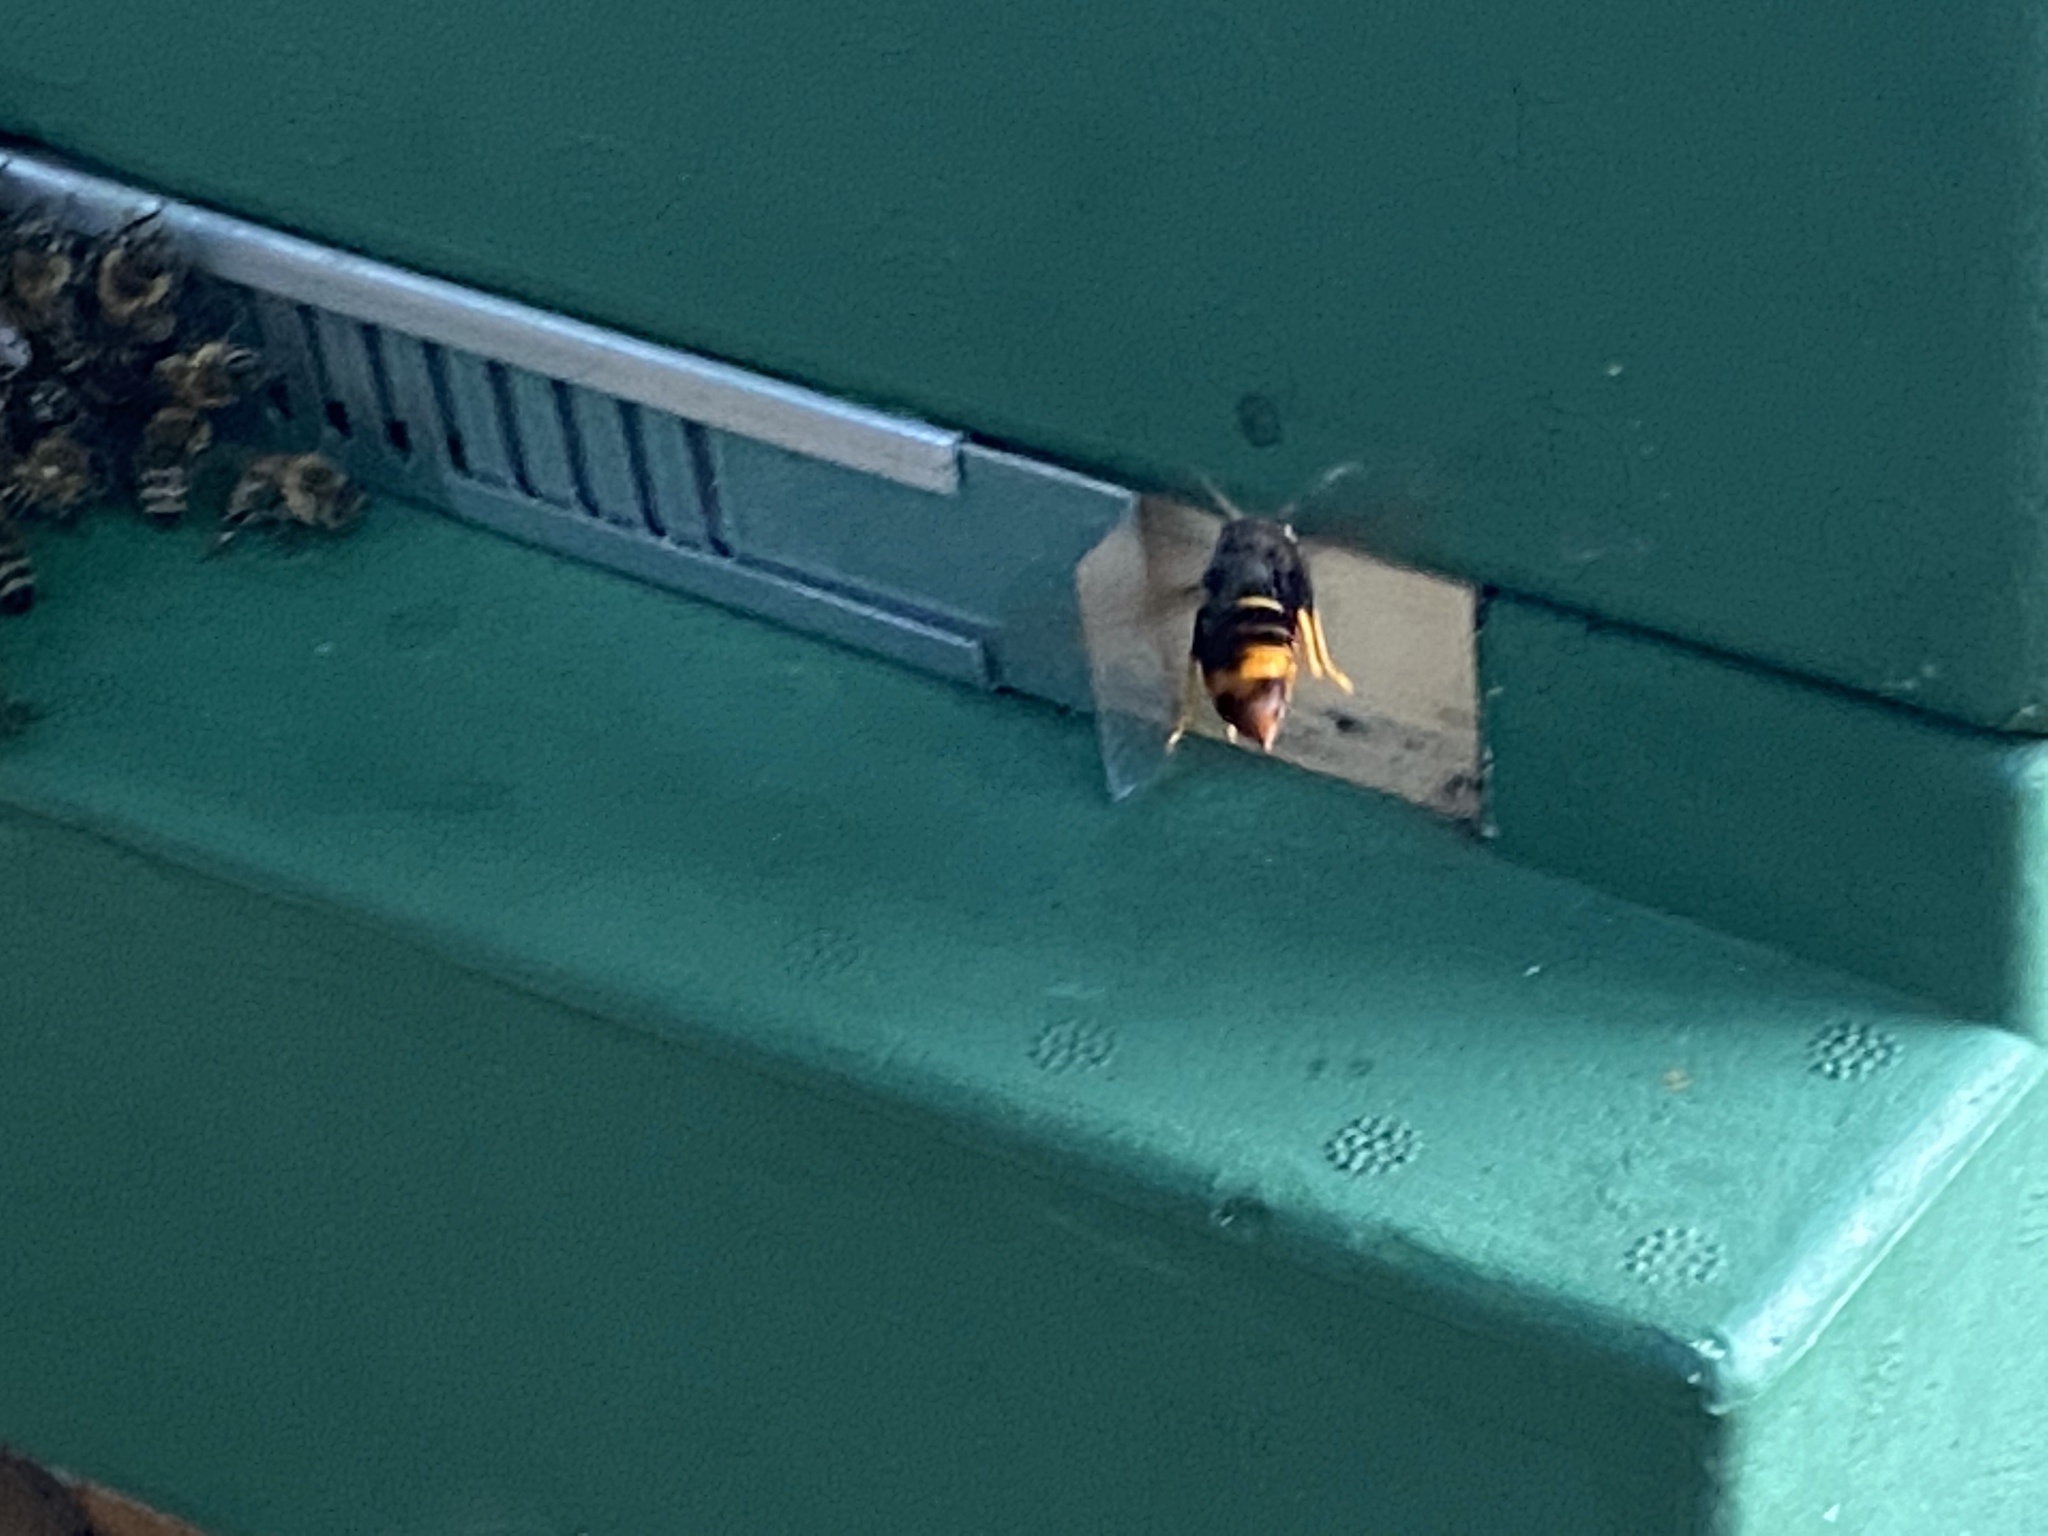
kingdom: Animalia
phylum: Arthropoda
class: Insecta
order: Hymenoptera
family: Vespidae
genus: Vespa
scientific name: Vespa velutina
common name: Asian hornet
